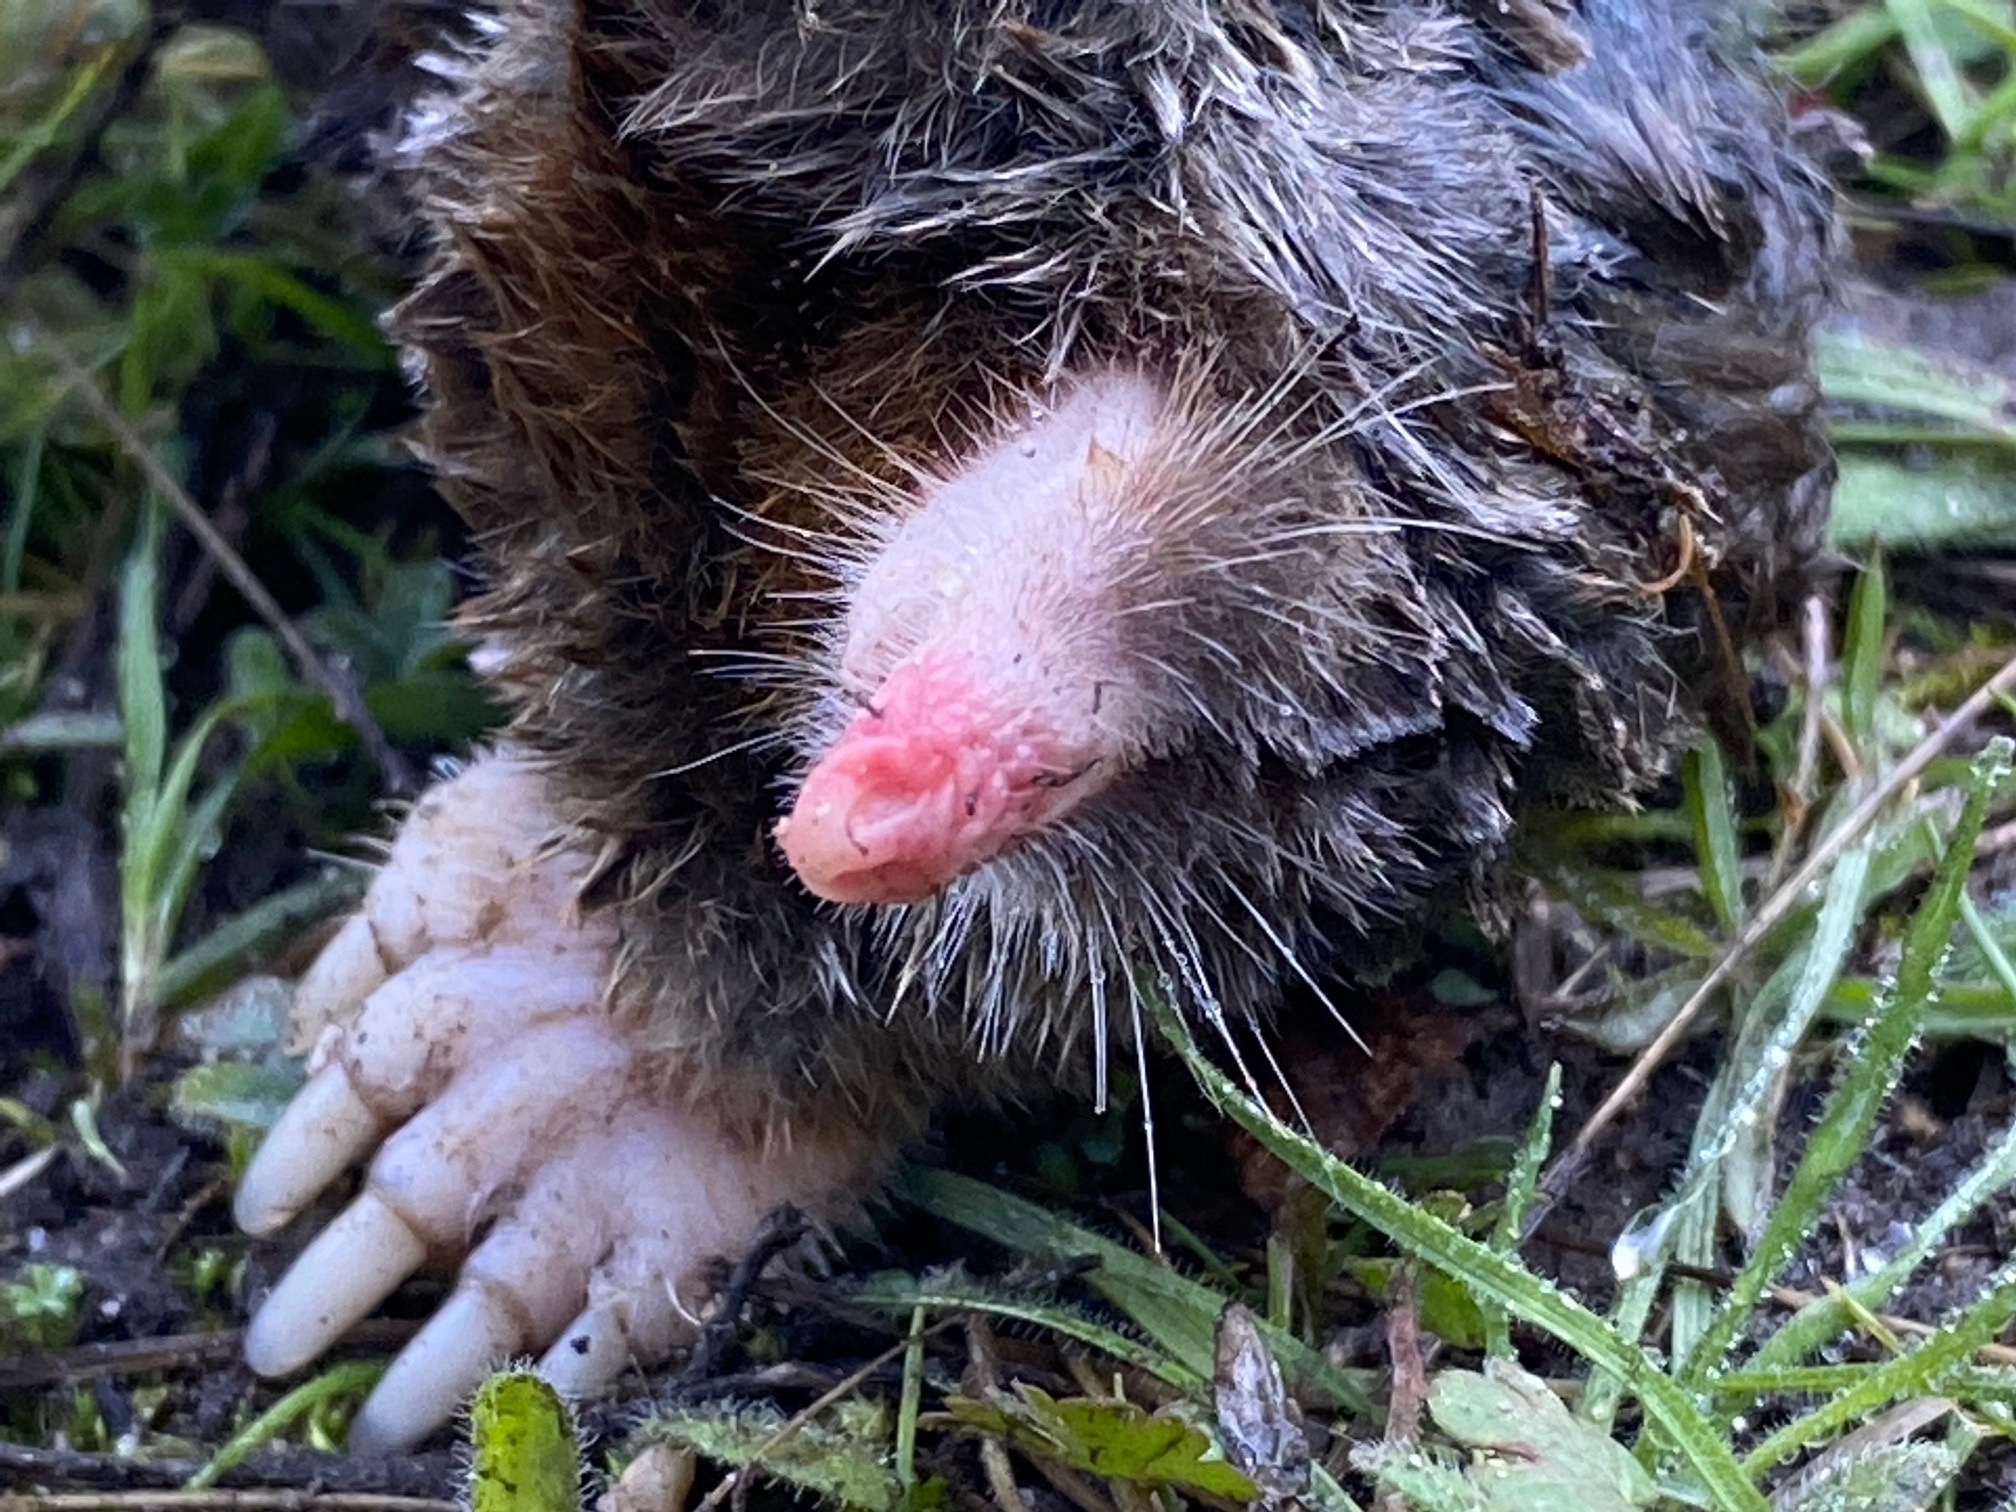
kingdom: Animalia
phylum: Chordata
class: Mammalia
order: Soricomorpha
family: Talpidae
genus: Scapanus
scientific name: Scapanus latimanus
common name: Broad-footed mole
